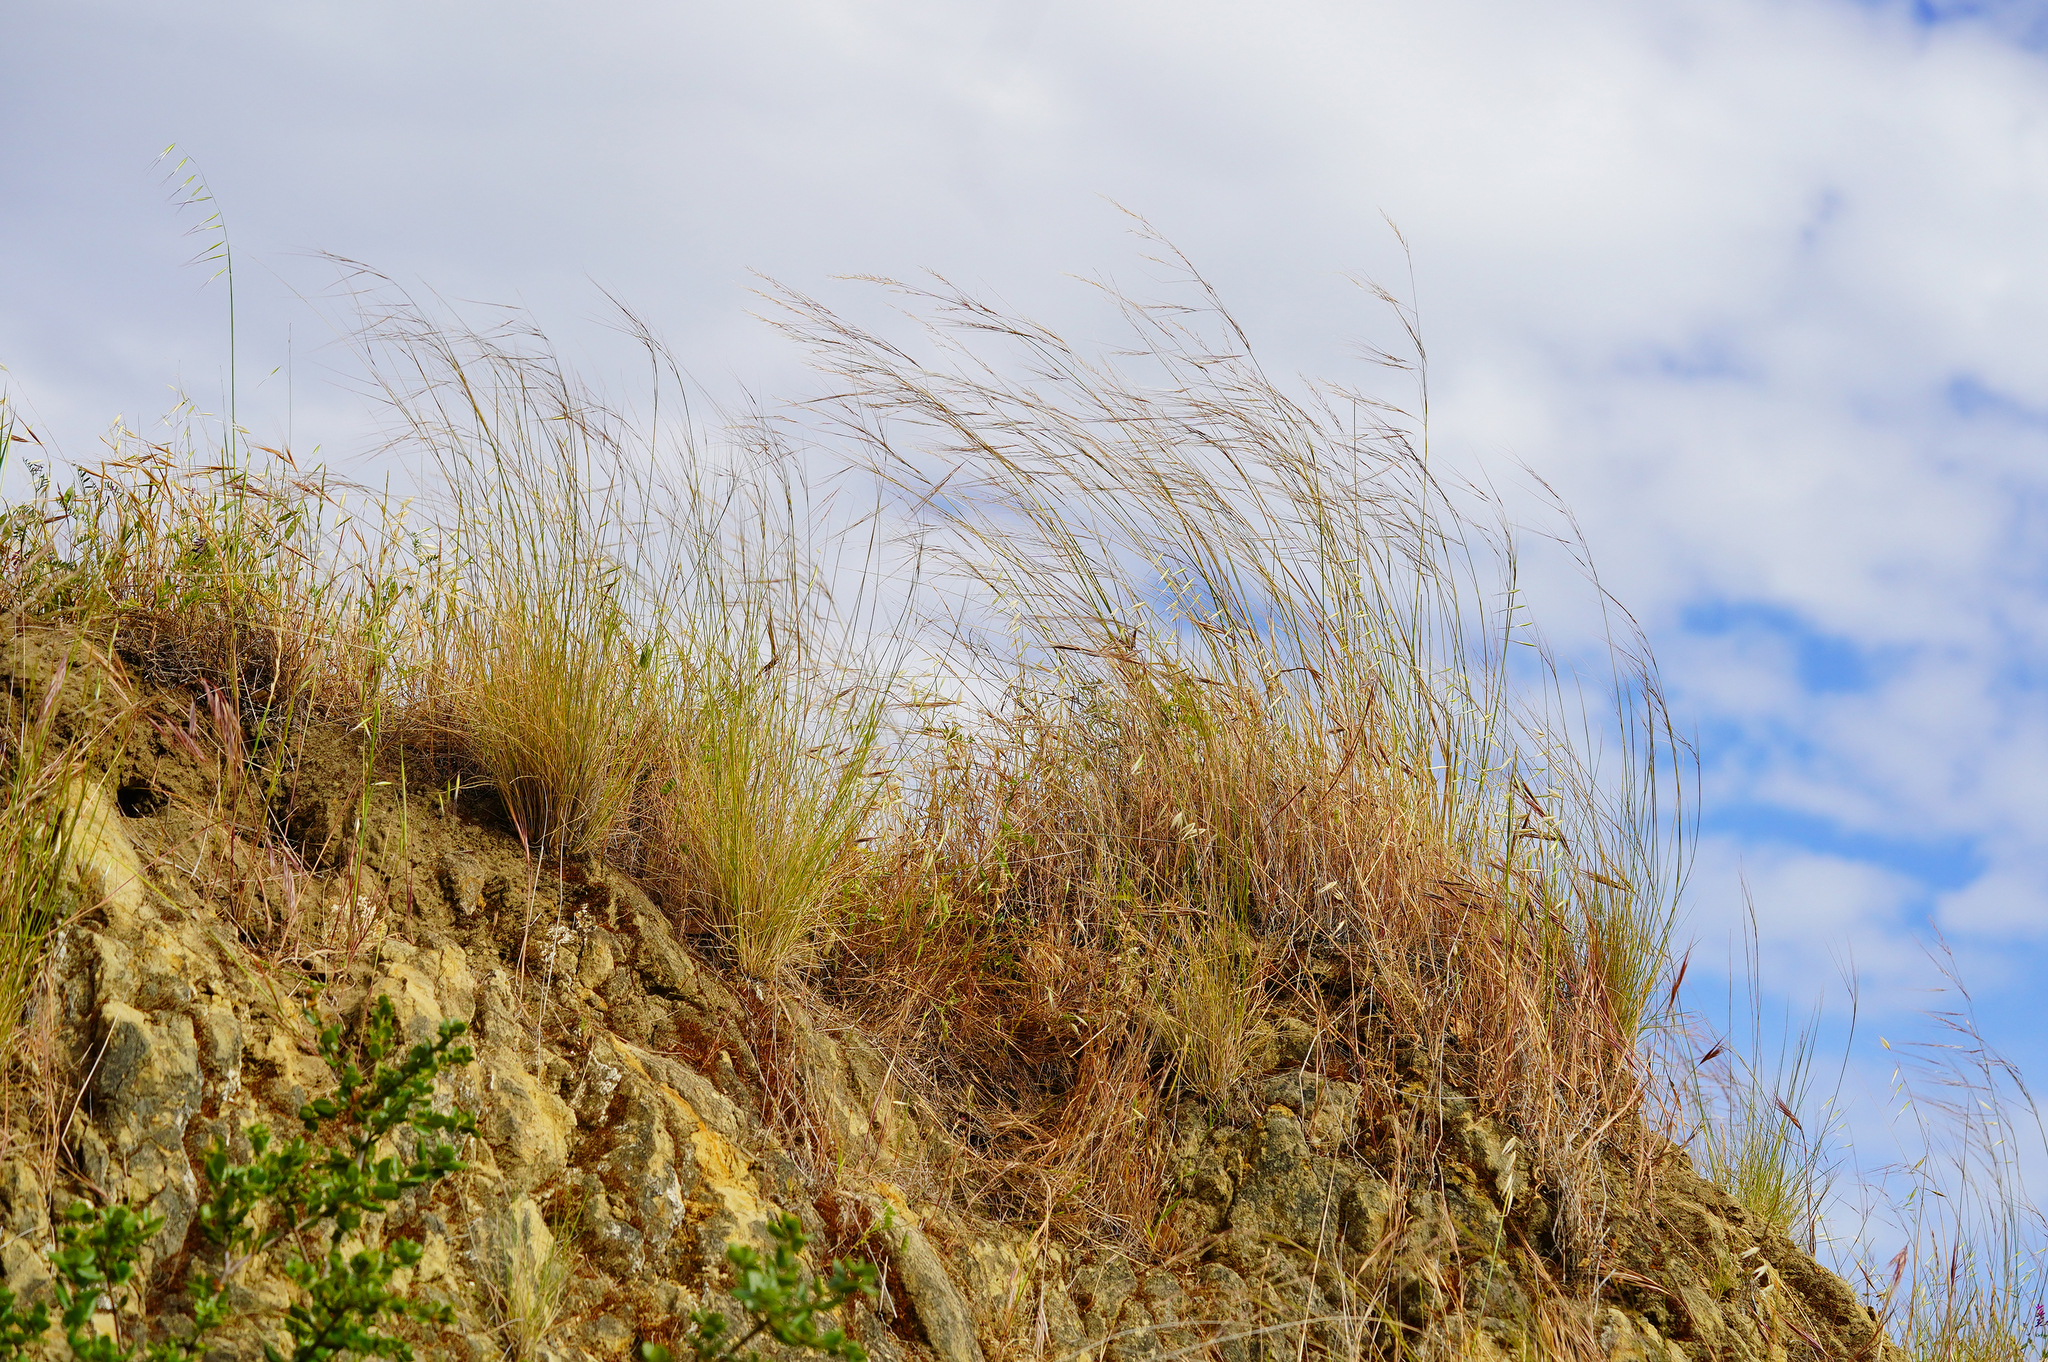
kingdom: Plantae
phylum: Tracheophyta
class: Liliopsida
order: Poales
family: Poaceae
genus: Nassella
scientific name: Nassella pulchra
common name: Purple needlegrass
